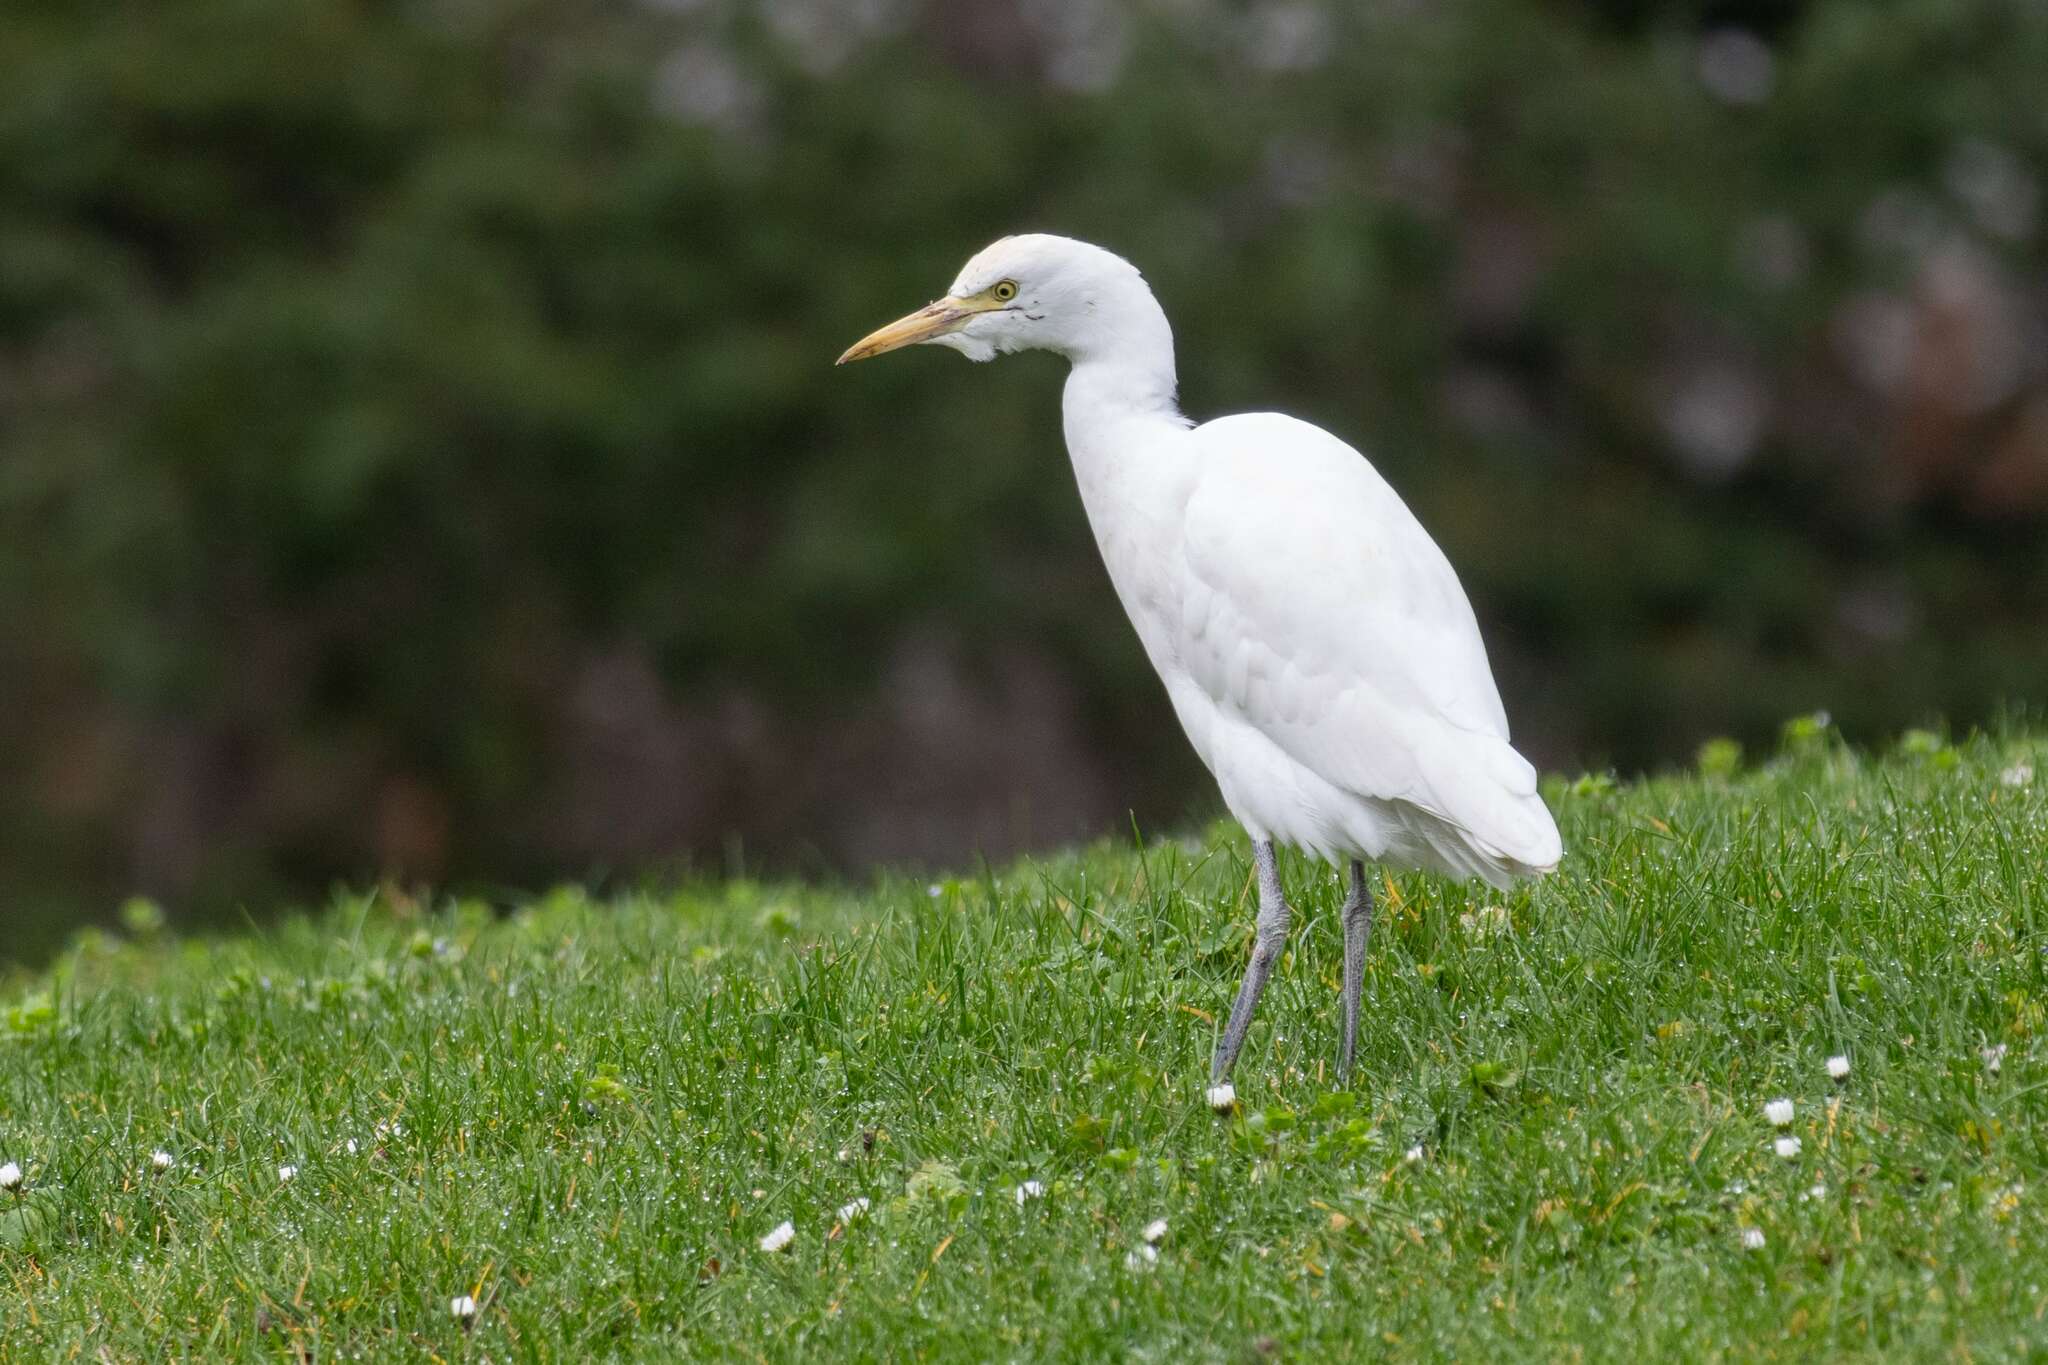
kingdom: Animalia
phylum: Chordata
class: Aves
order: Pelecaniformes
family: Ardeidae
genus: Bubulcus
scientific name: Bubulcus ibis
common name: Cattle egret
